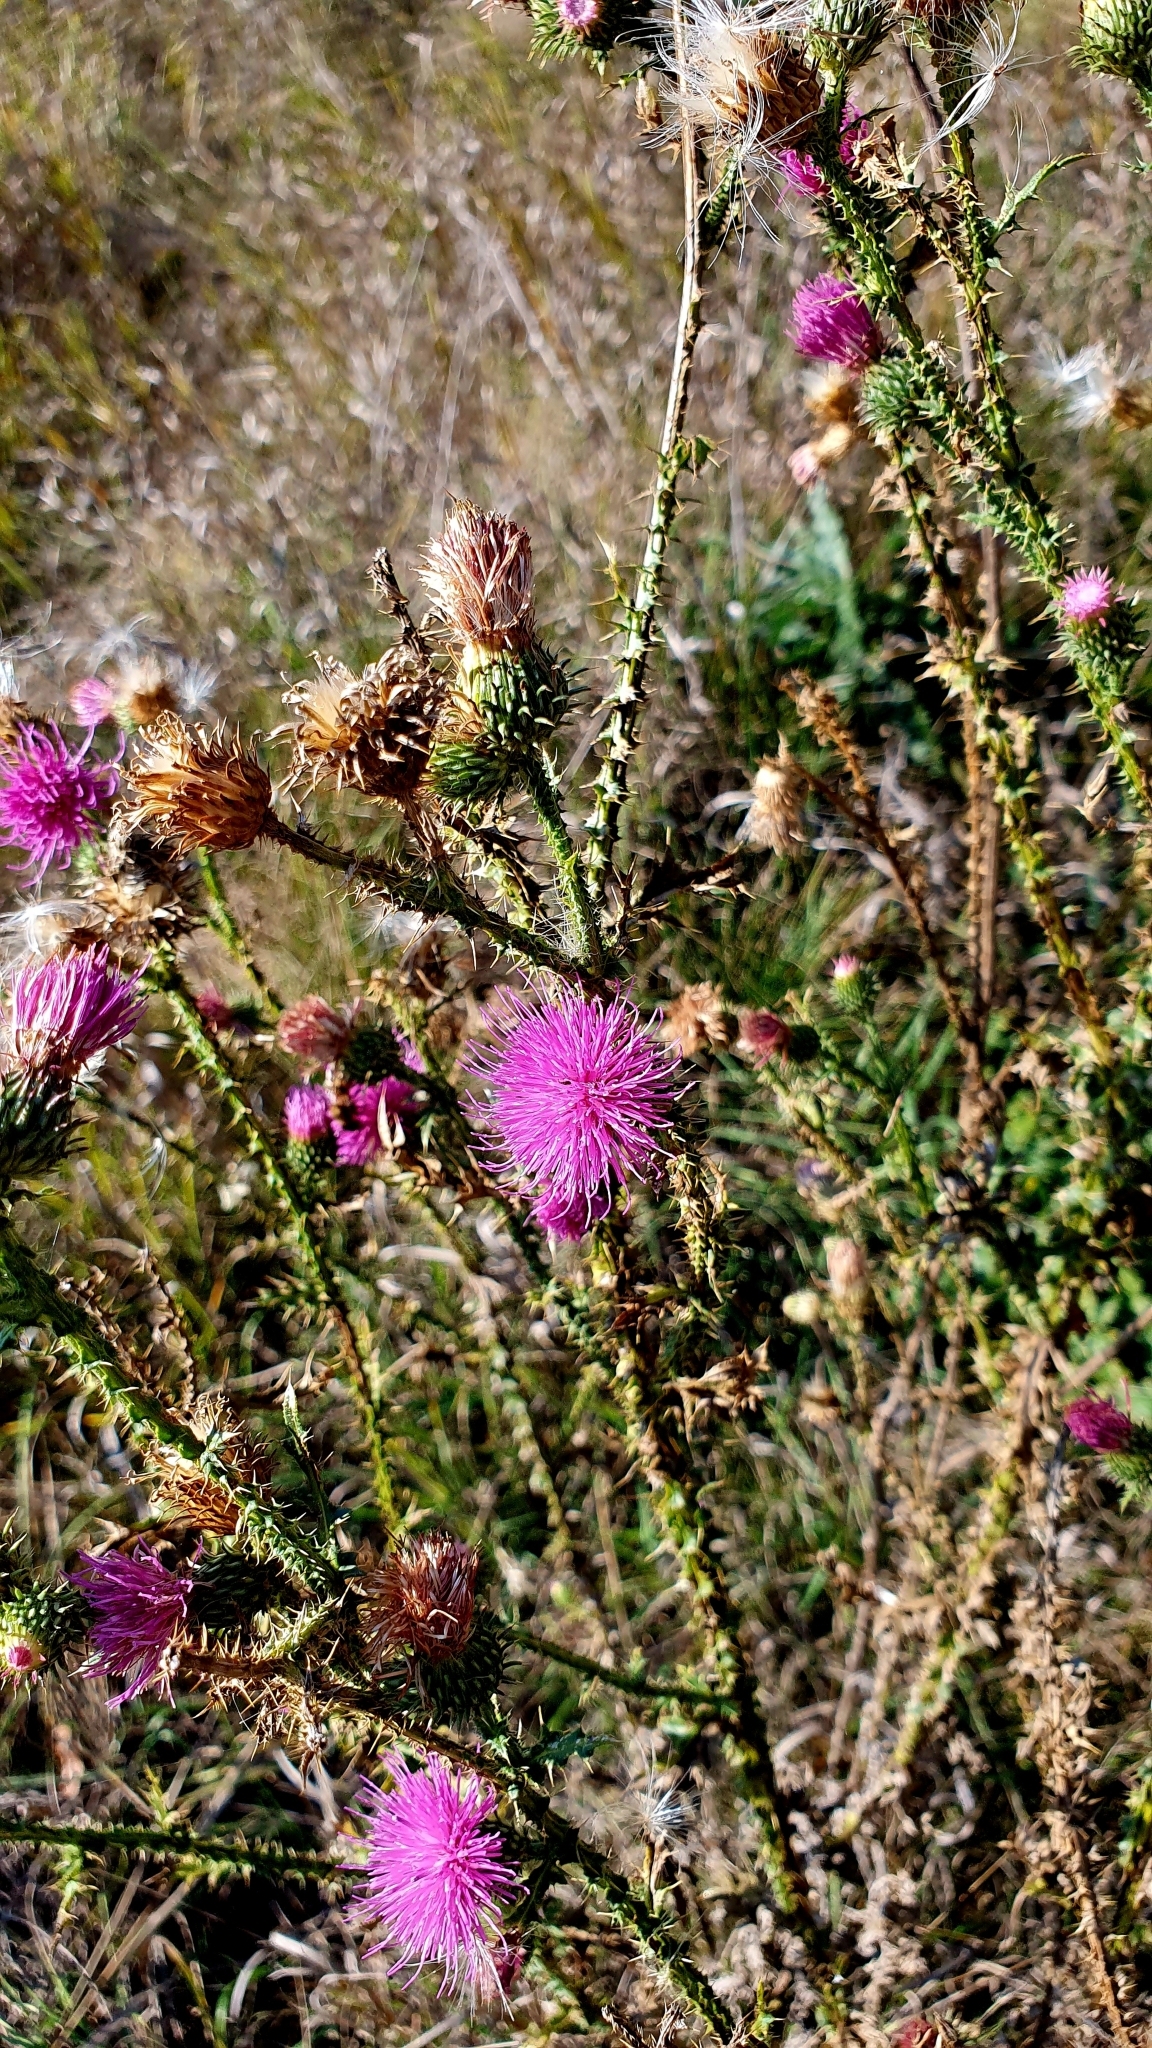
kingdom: Plantae
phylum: Tracheophyta
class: Magnoliopsida
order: Asterales
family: Asteraceae
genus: Carduus
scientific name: Carduus acanthoides
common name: Plumeless thistle
